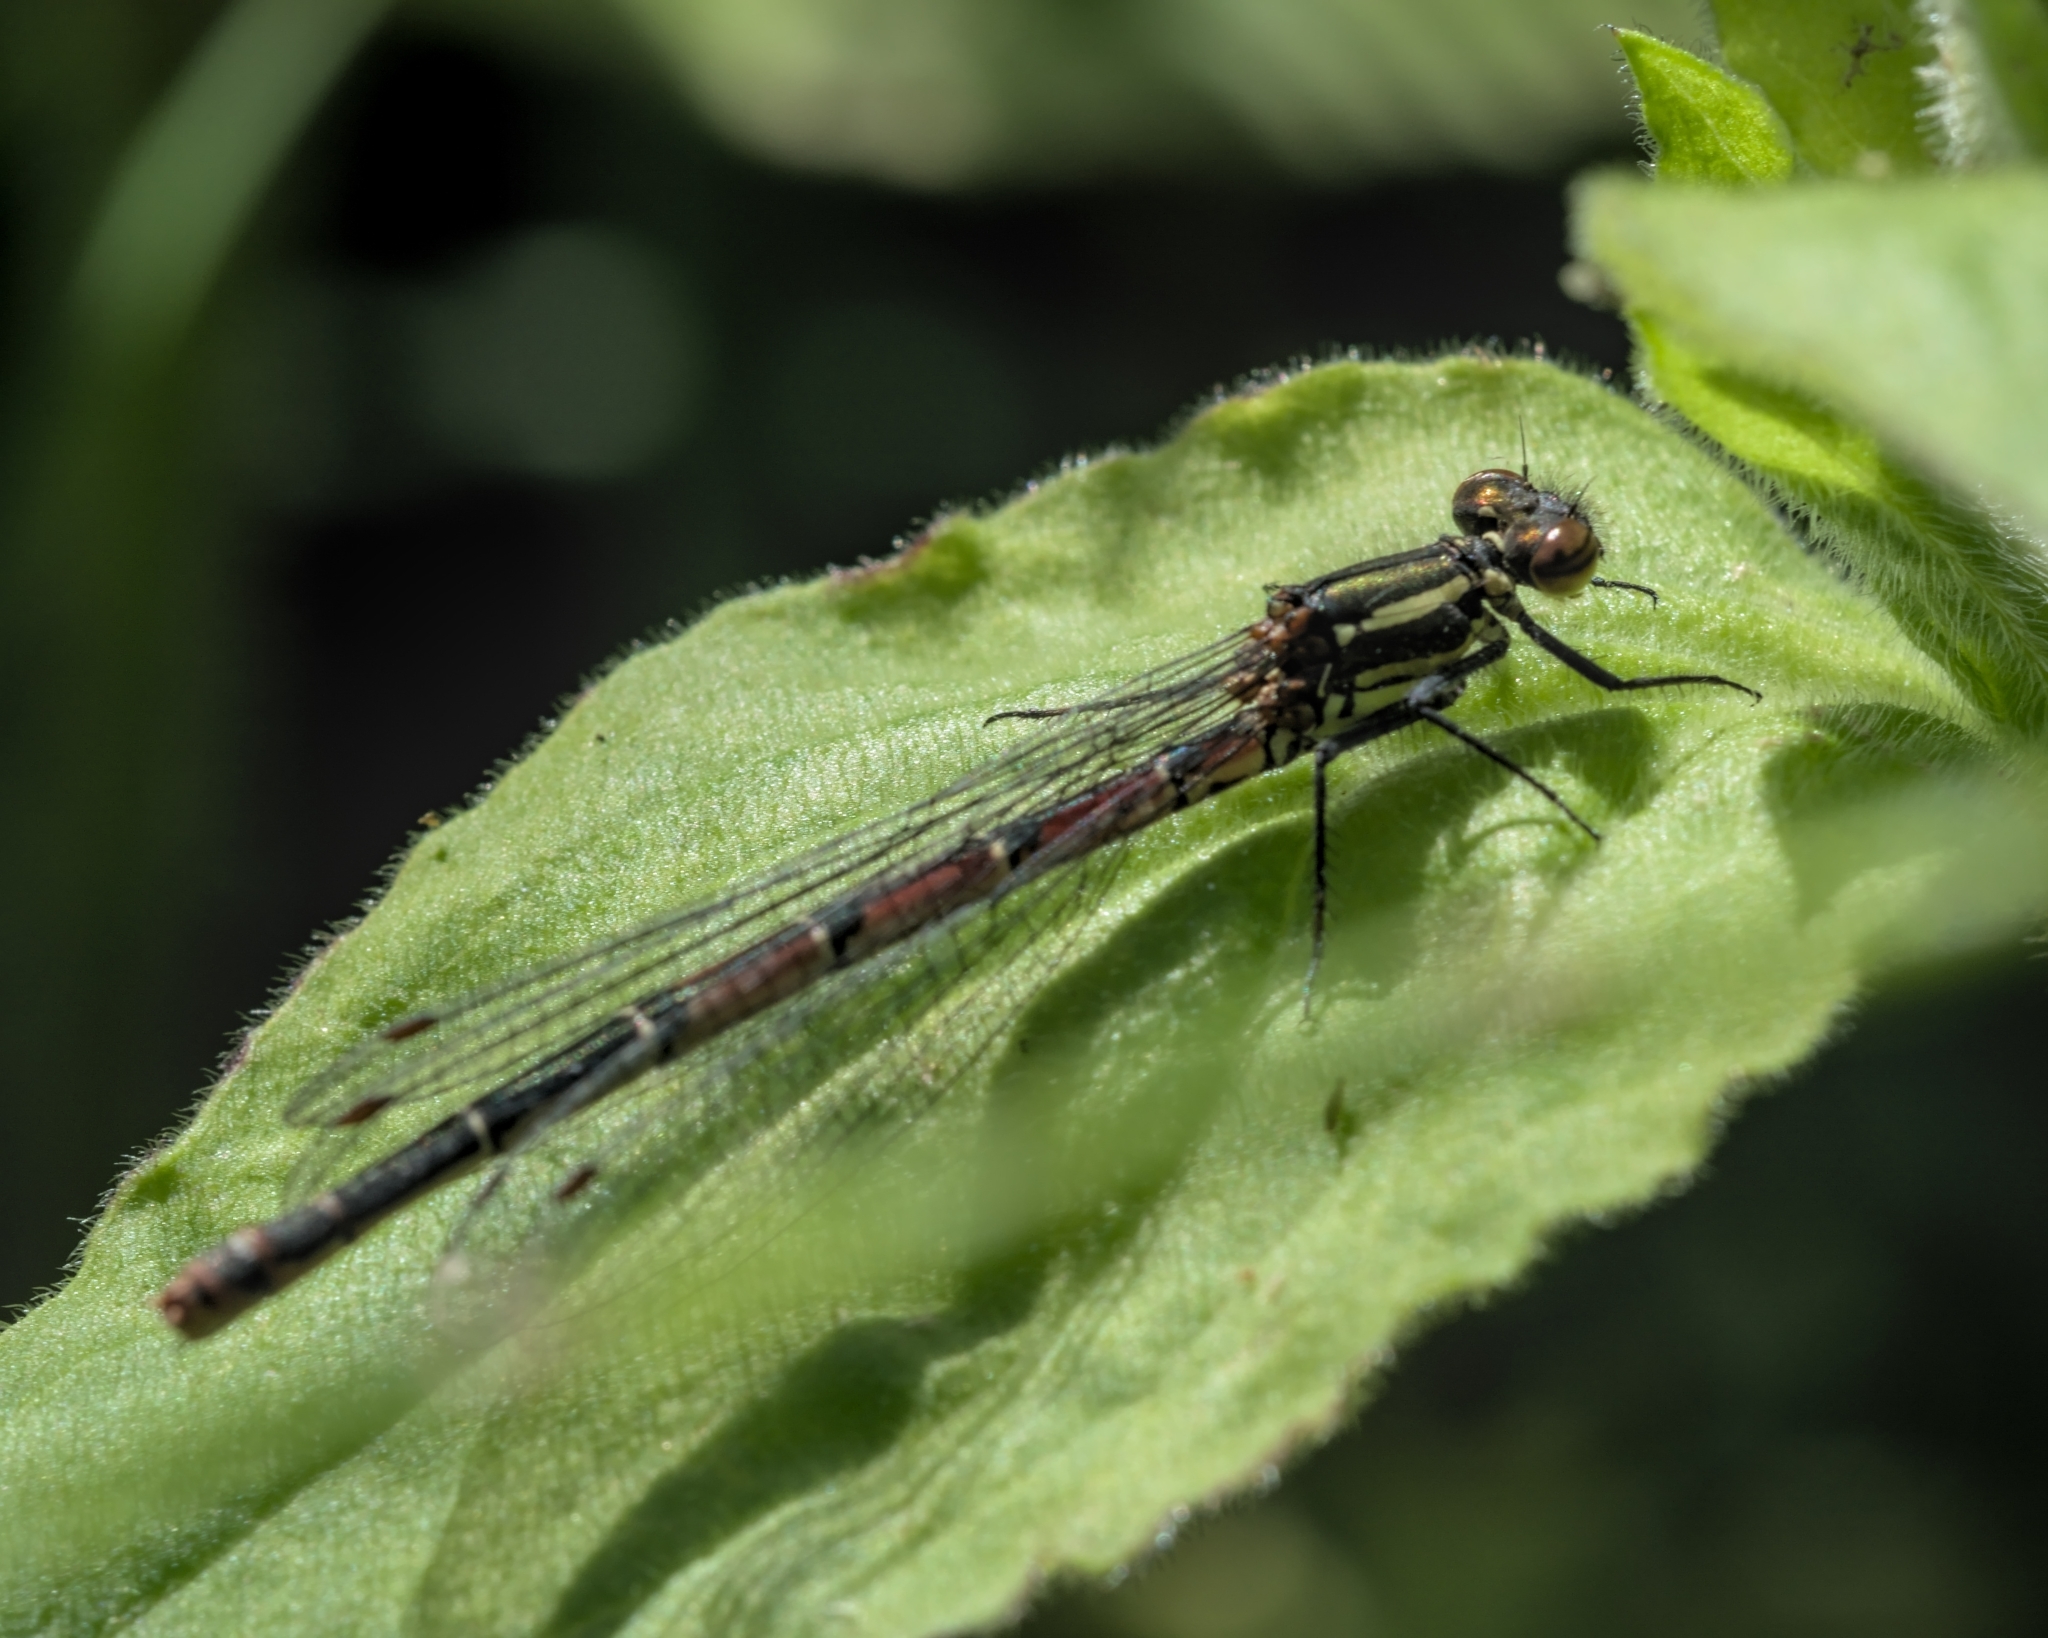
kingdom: Animalia
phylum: Arthropoda
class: Insecta
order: Odonata
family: Coenagrionidae
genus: Pyrrhosoma
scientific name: Pyrrhosoma nymphula
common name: Large red damsel
